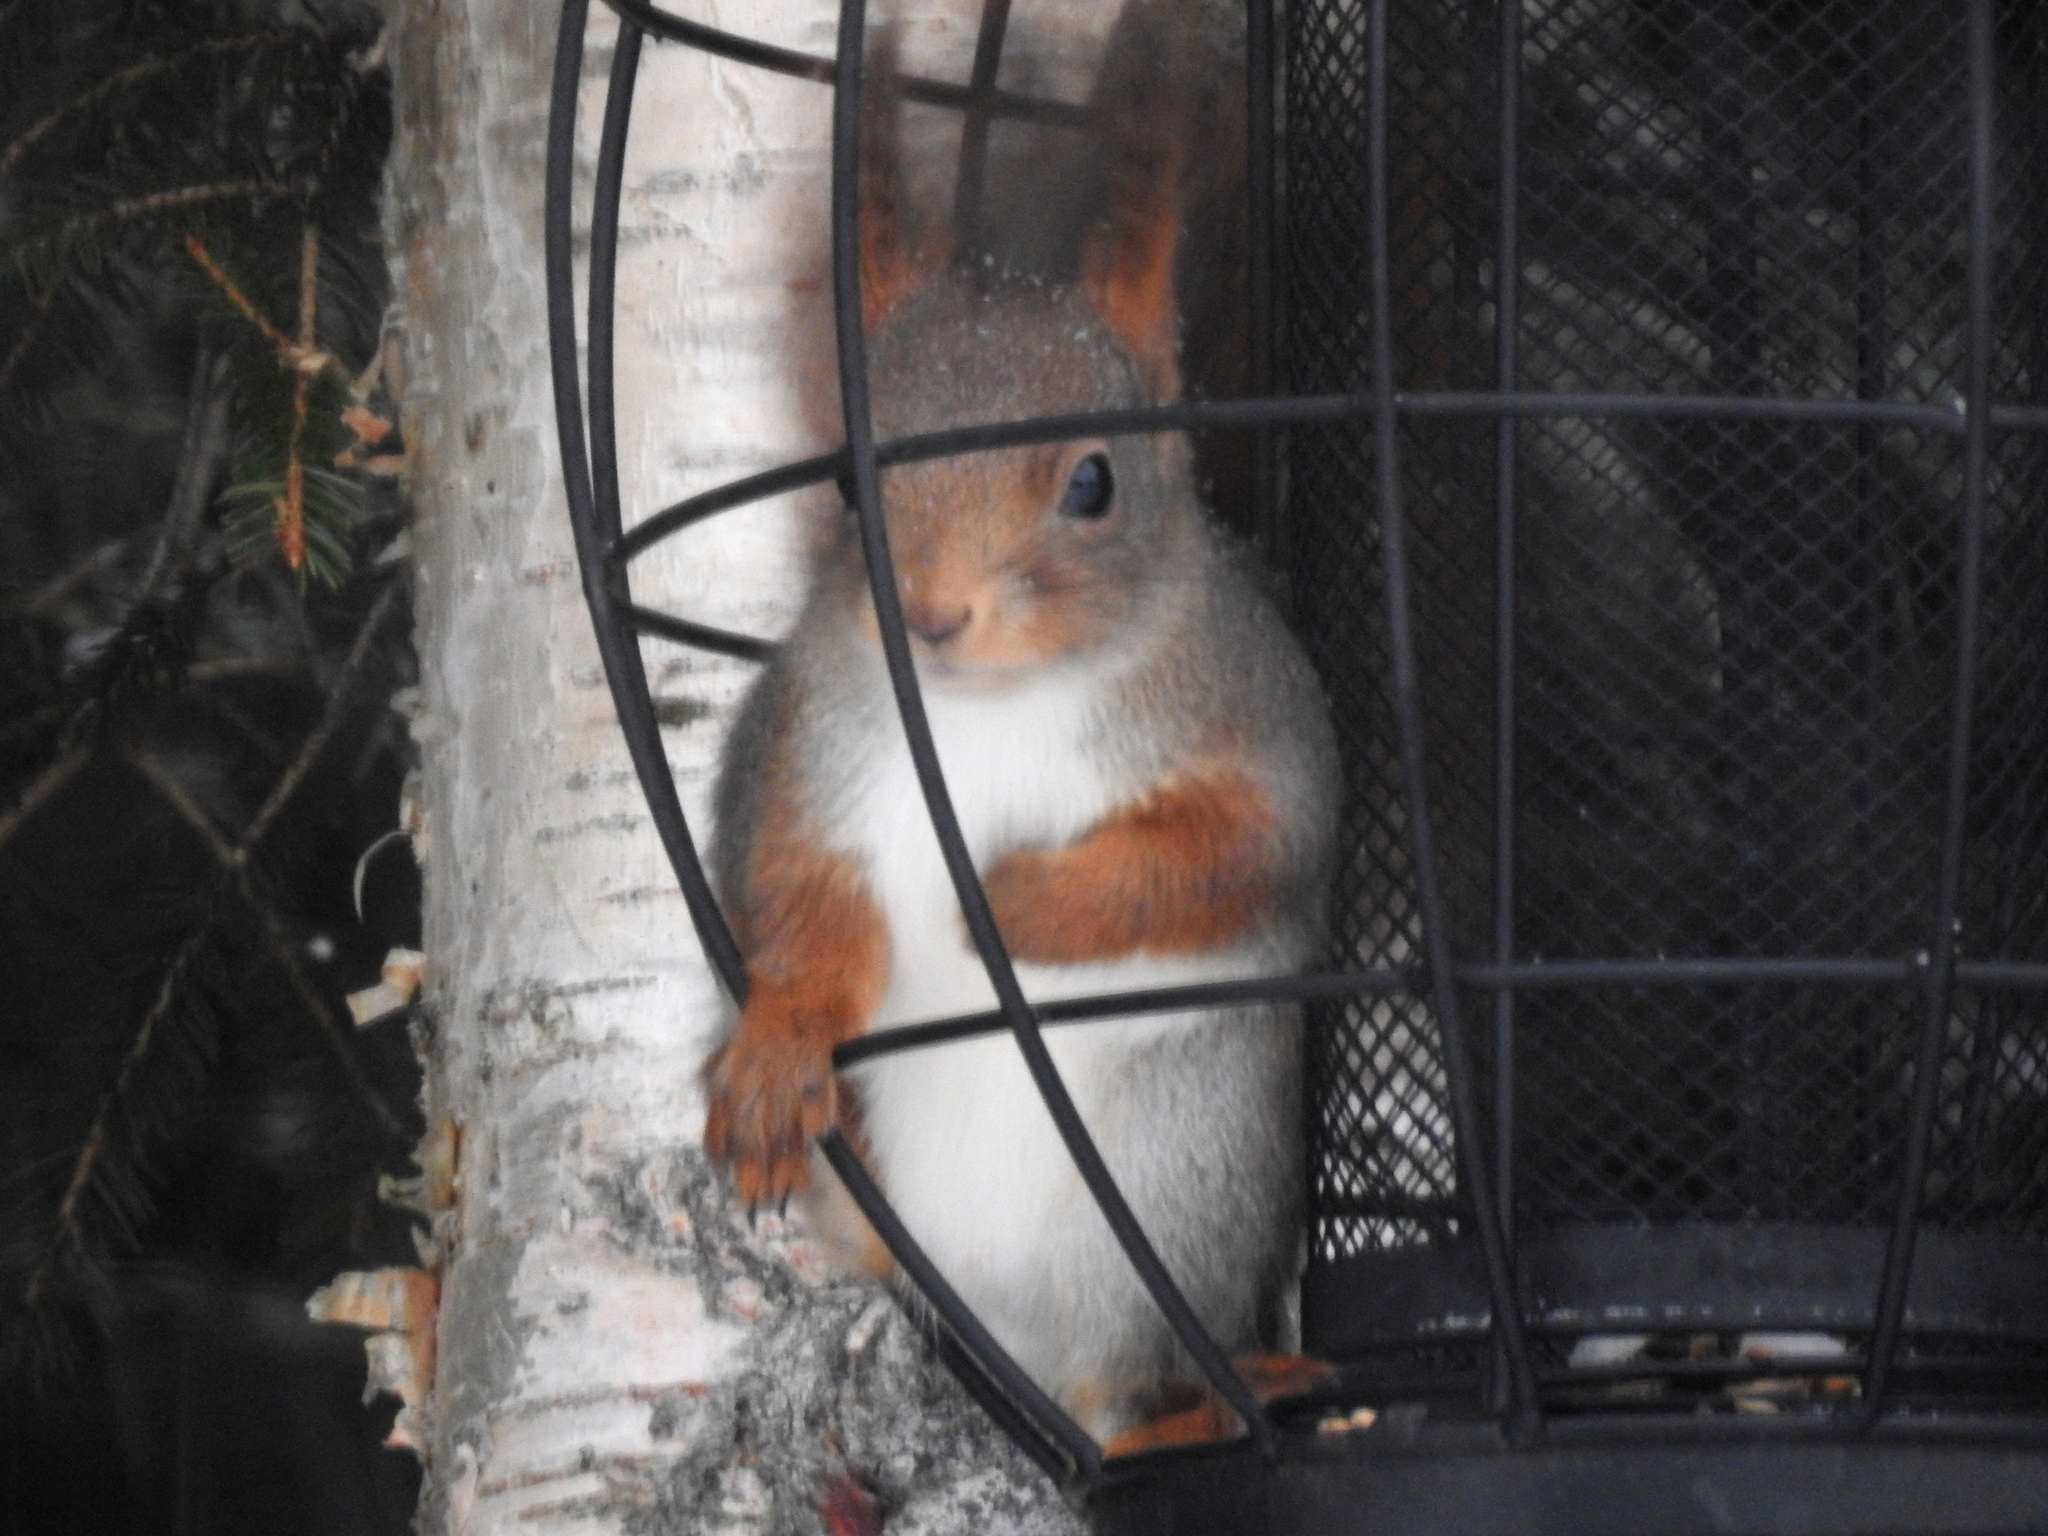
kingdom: Animalia
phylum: Chordata
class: Mammalia
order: Rodentia
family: Sciuridae
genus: Sciurus
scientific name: Sciurus vulgaris
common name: Eurasian red squirrel
